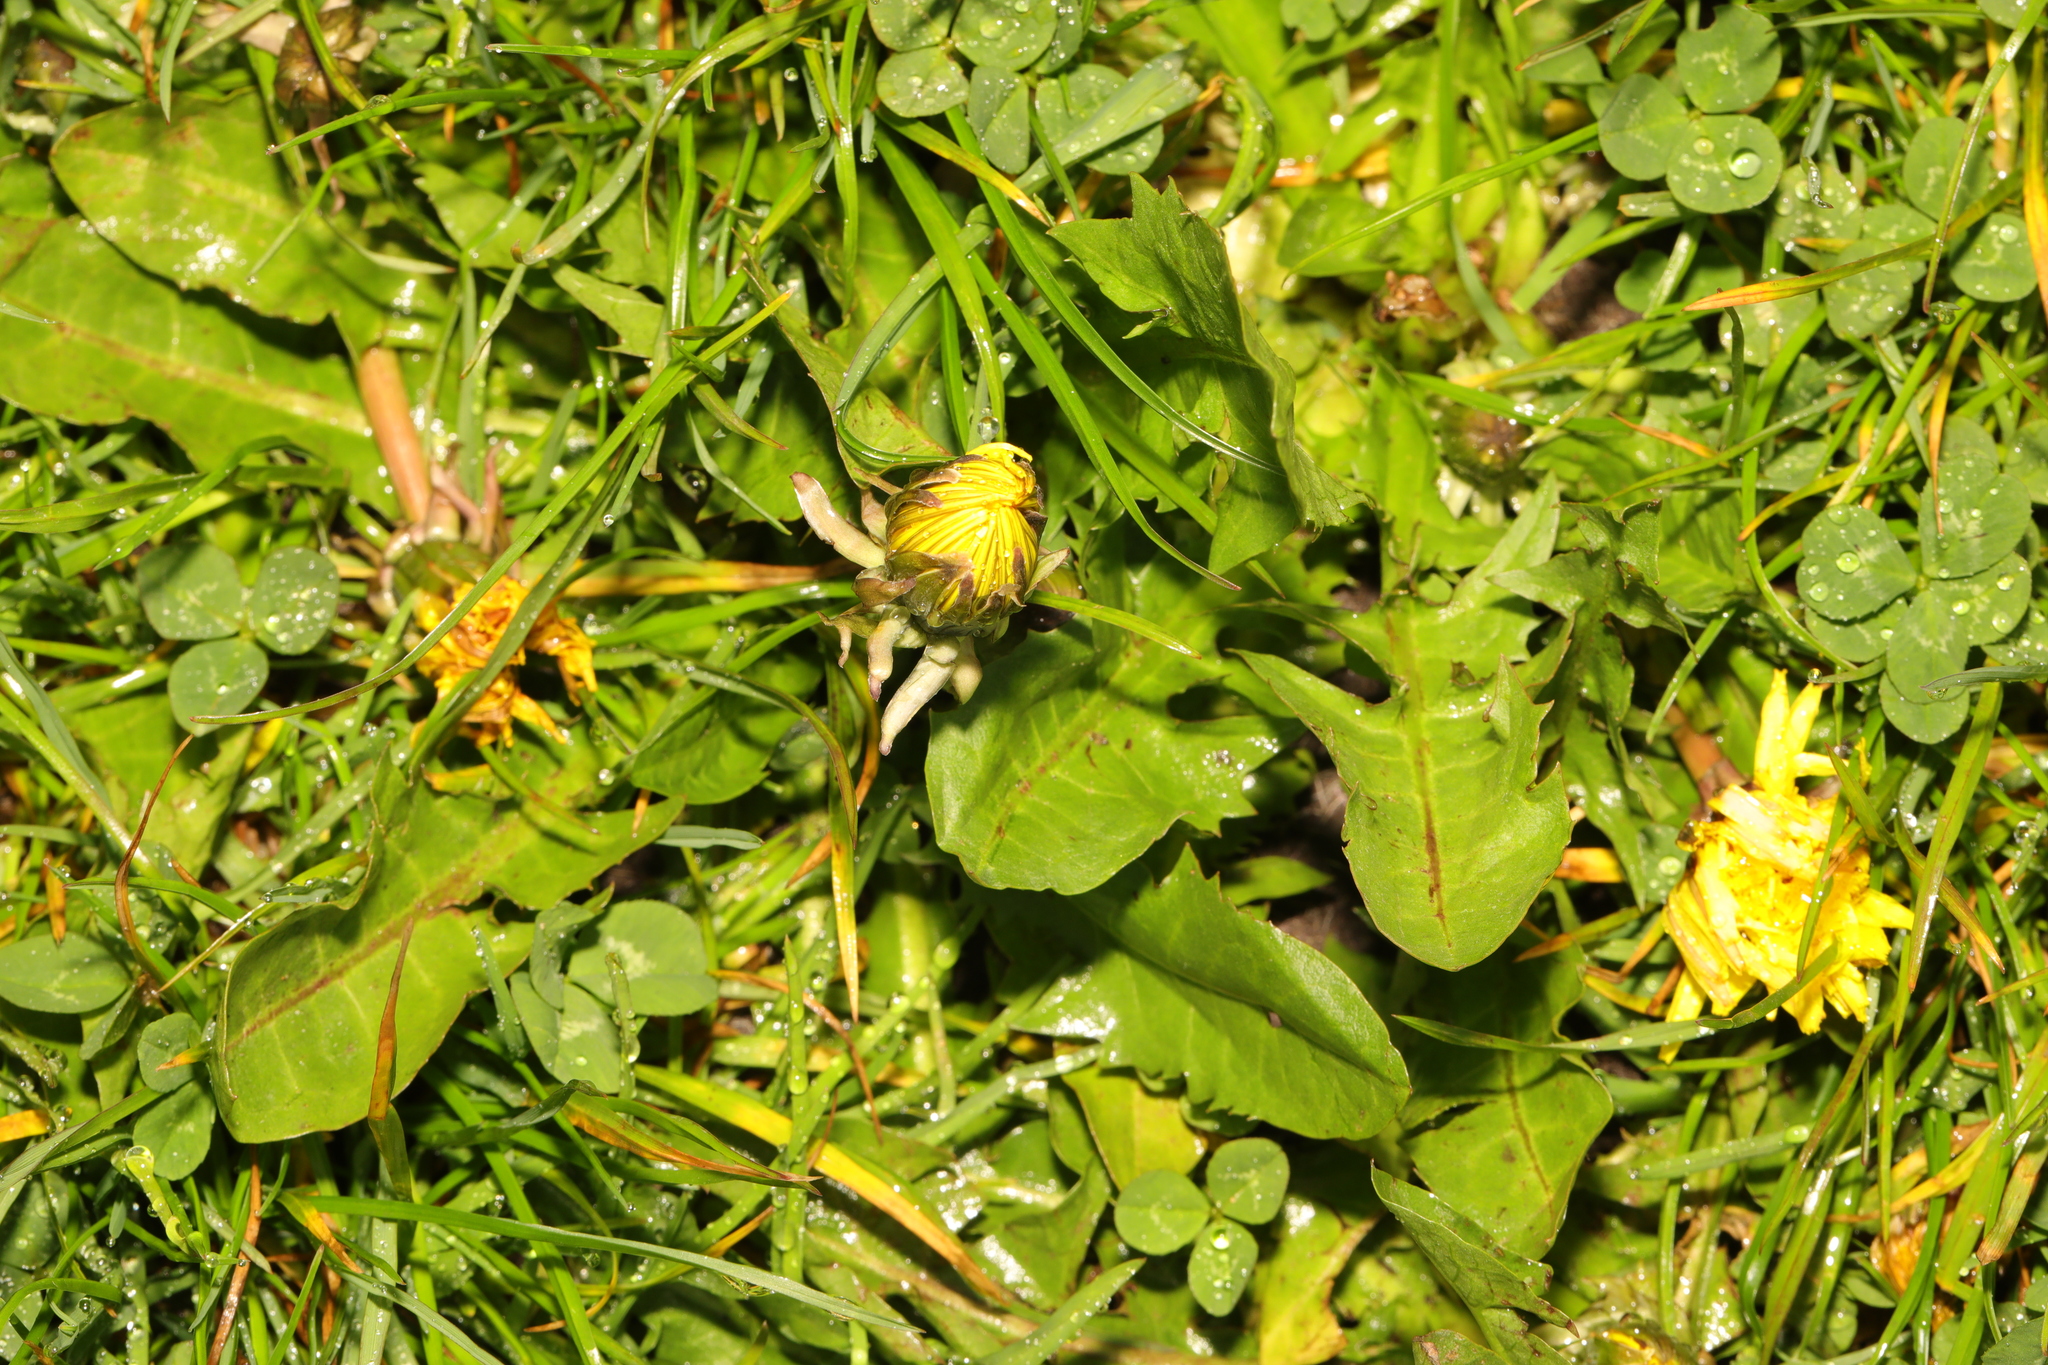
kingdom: Plantae
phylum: Tracheophyta
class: Magnoliopsida
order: Asterales
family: Asteraceae
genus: Taraxacum
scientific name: Taraxacum officinale
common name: Common dandelion
